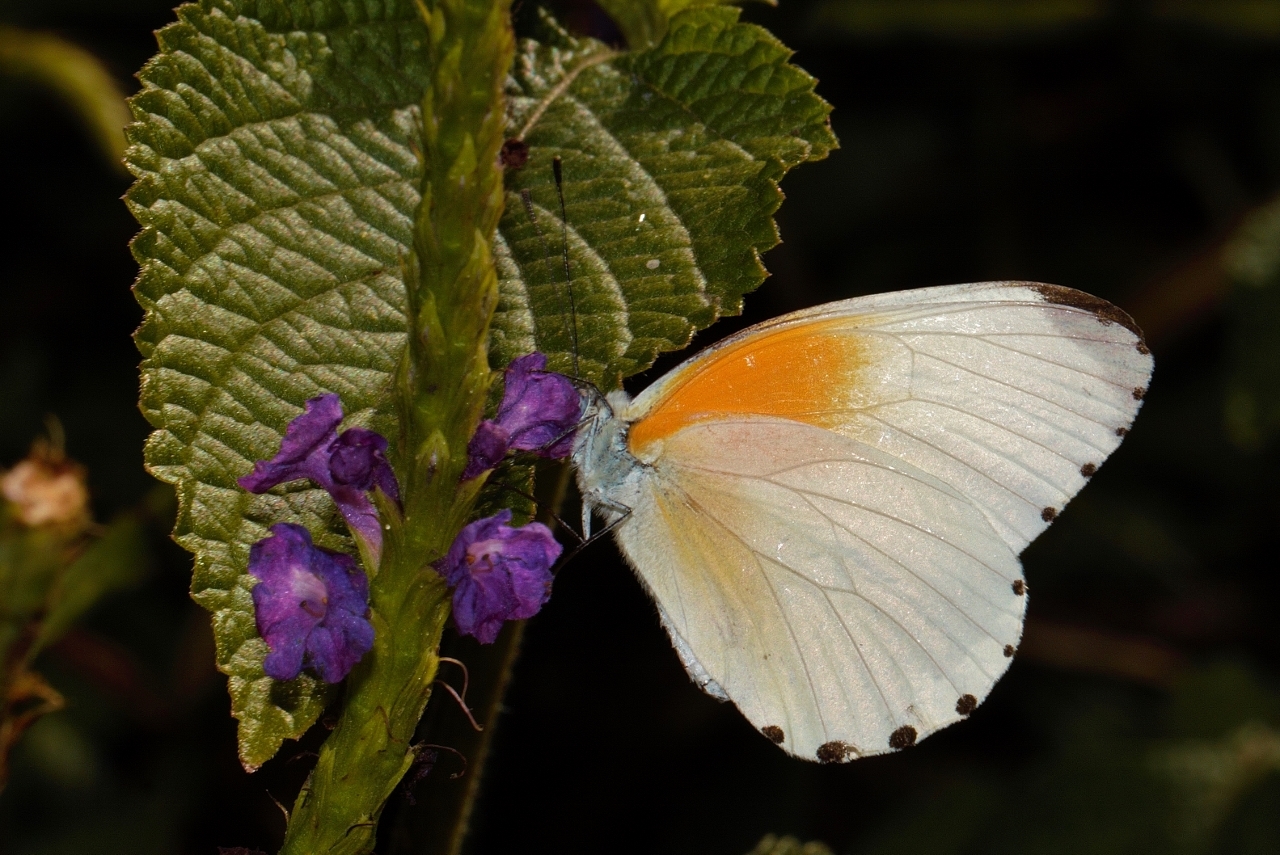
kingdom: Animalia
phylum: Arthropoda
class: Insecta
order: Lepidoptera
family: Pieridae
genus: Mylothris
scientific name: Mylothris rueppellii
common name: Twin dotted border
